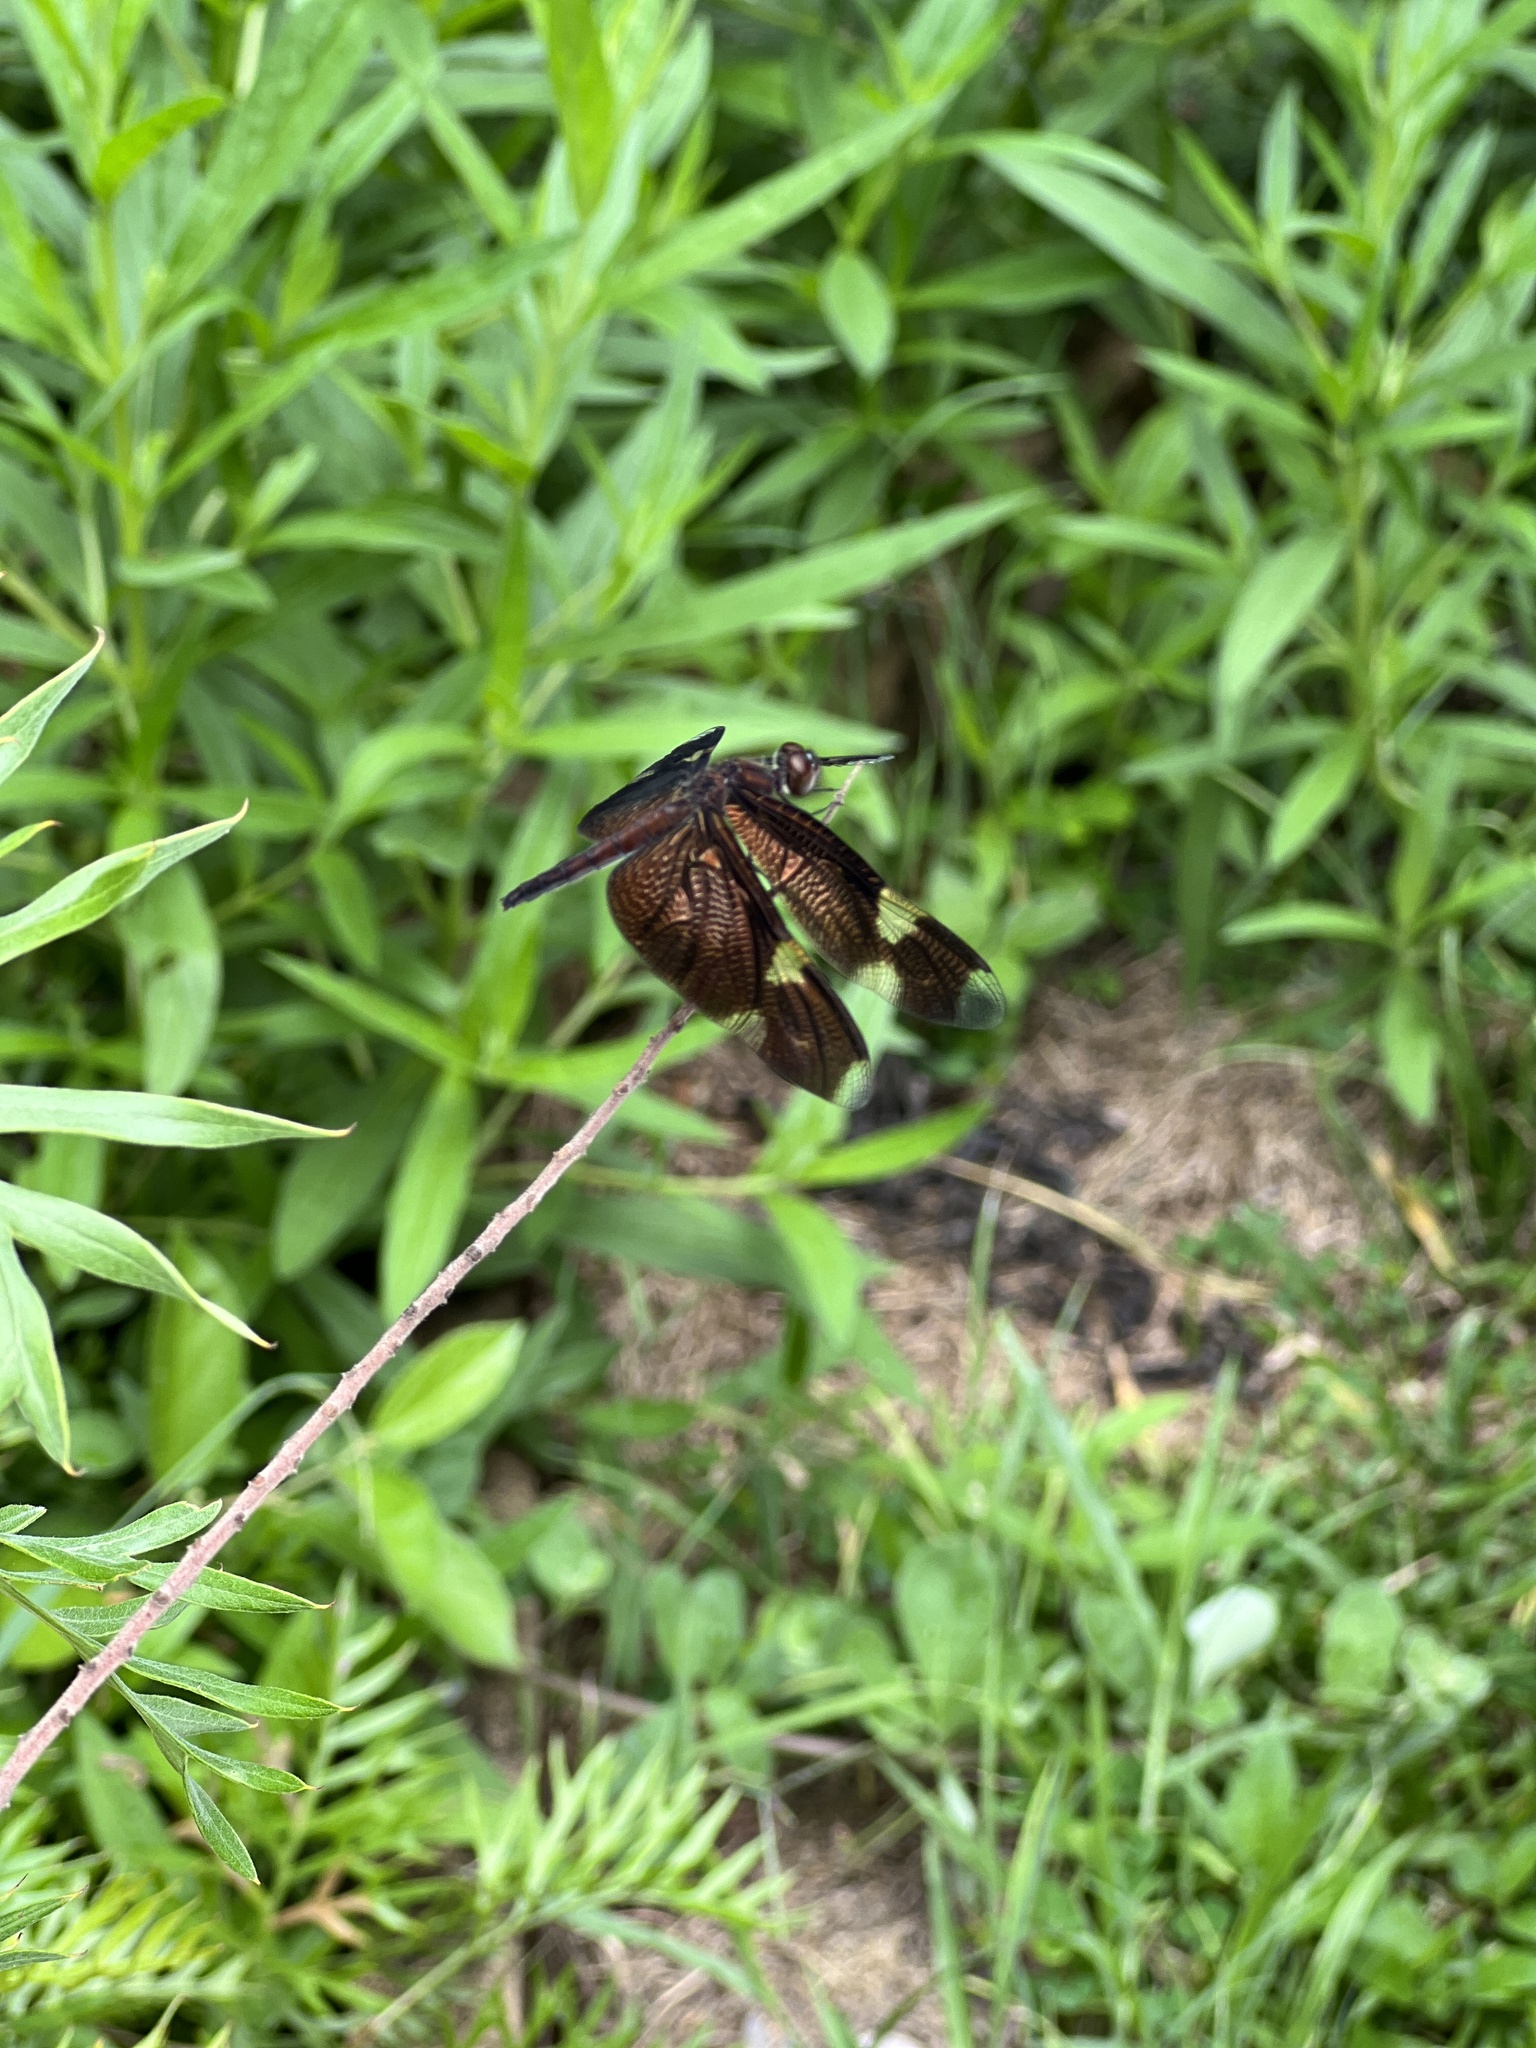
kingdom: Animalia
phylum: Arthropoda
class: Insecta
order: Odonata
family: Libellulidae
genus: Rhyothemis
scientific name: Rhyothemis princeps
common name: Sapphire flutterer
